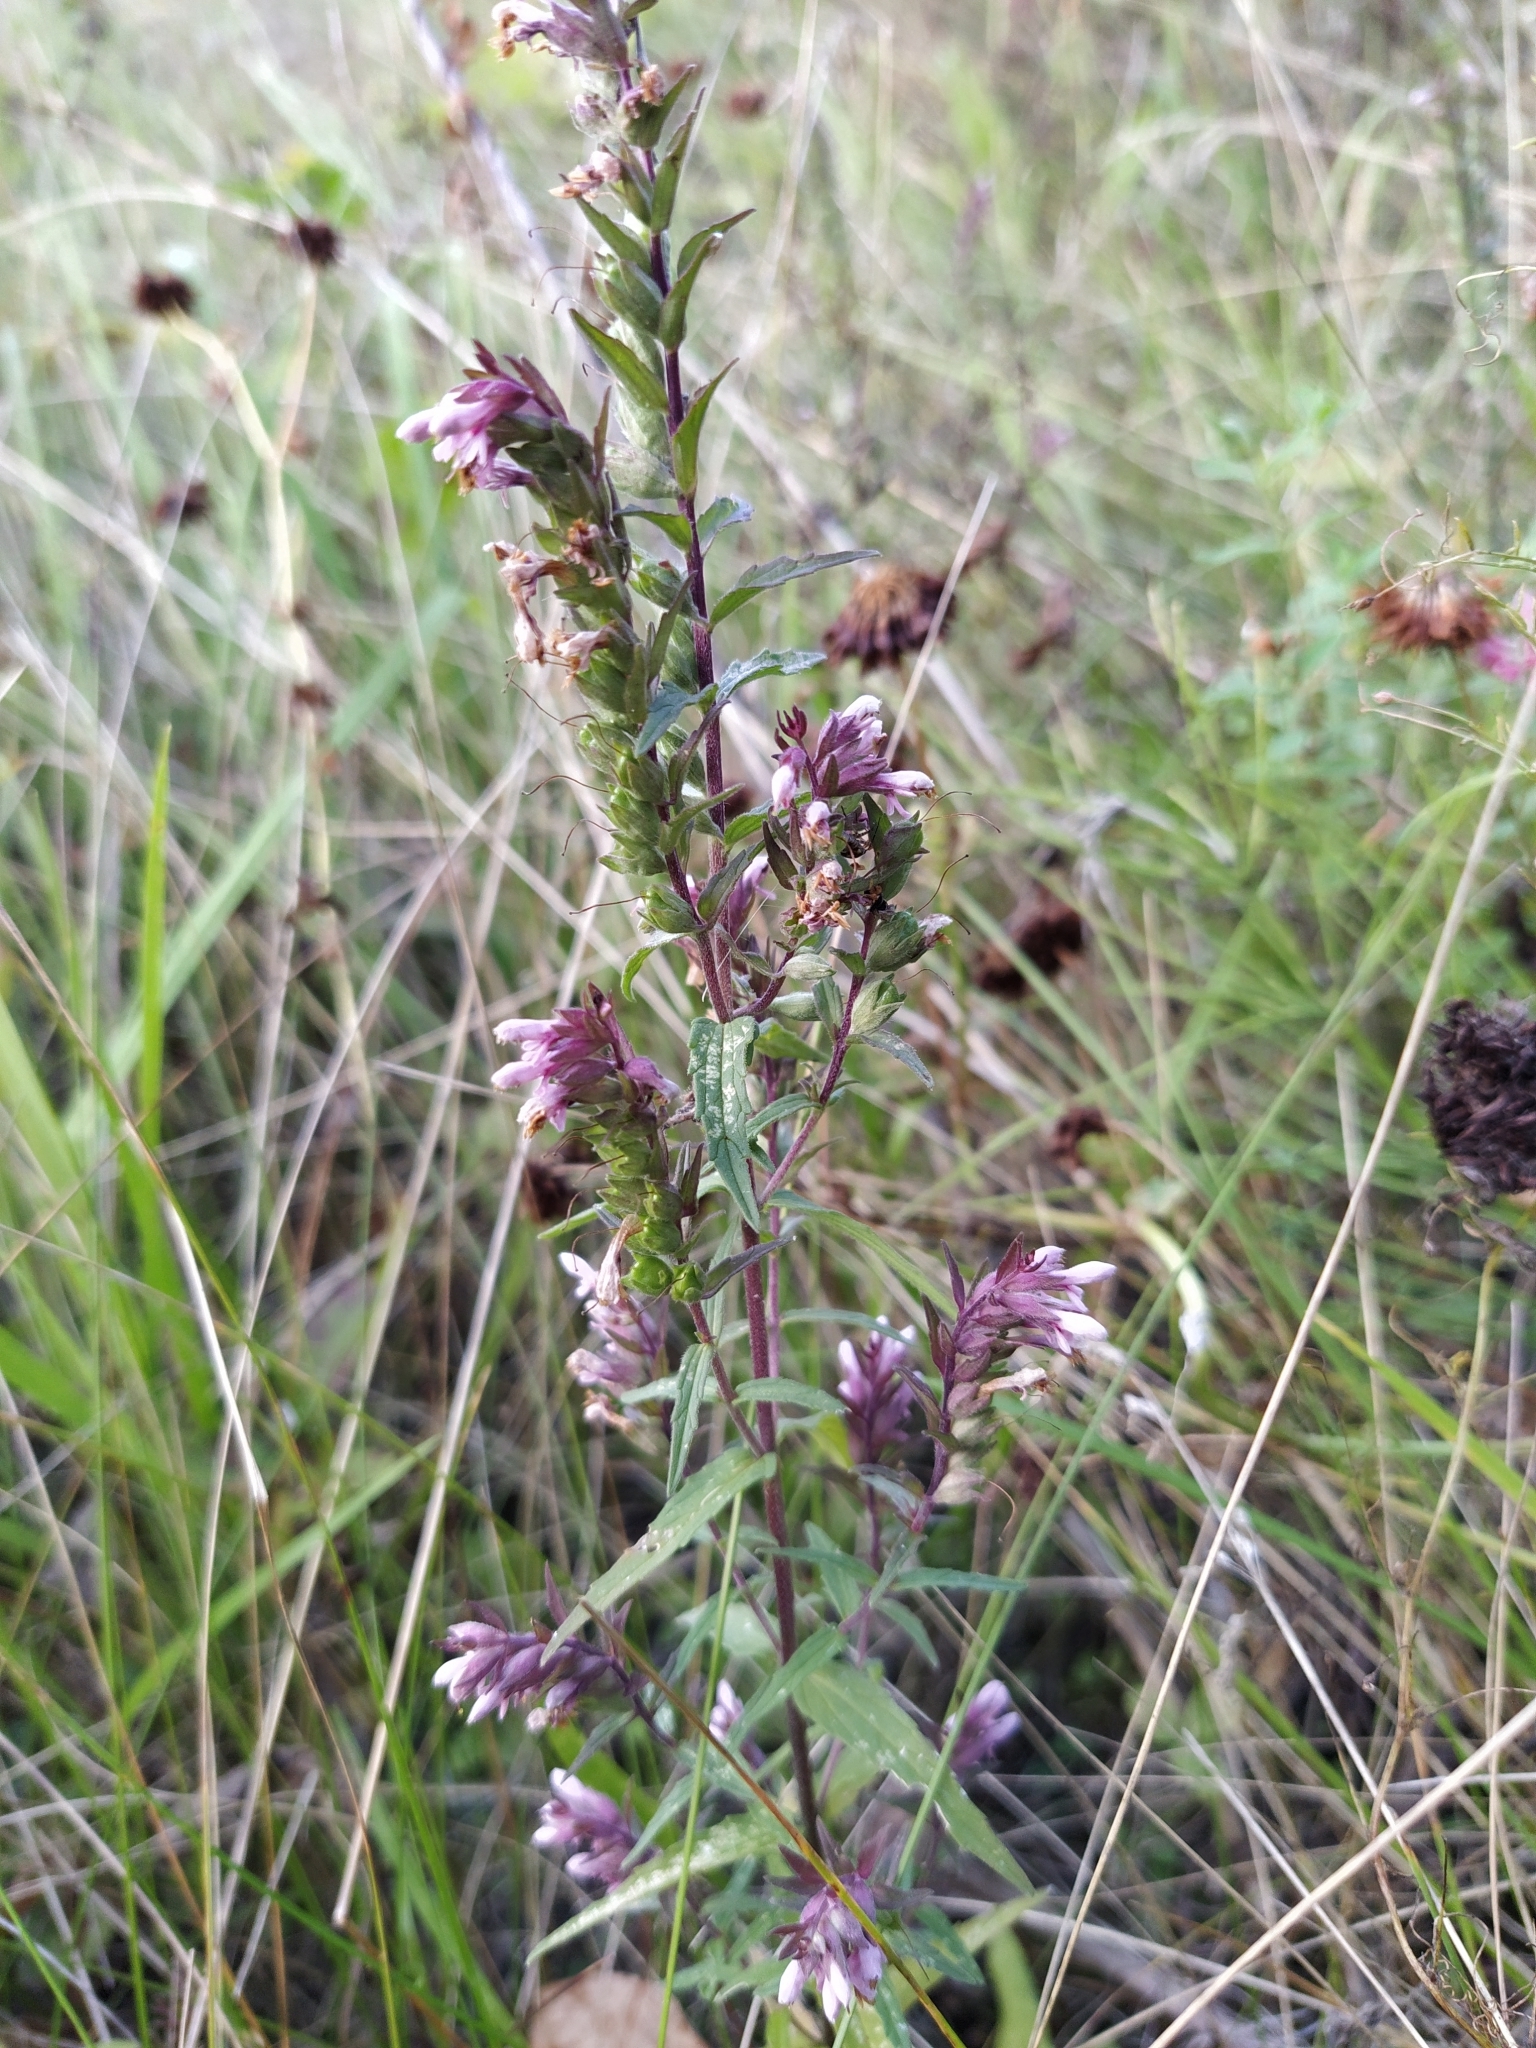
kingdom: Plantae
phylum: Tracheophyta
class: Magnoliopsida
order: Lamiales
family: Orobanchaceae
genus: Odontites
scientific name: Odontites vulgaris
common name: Broomrape
